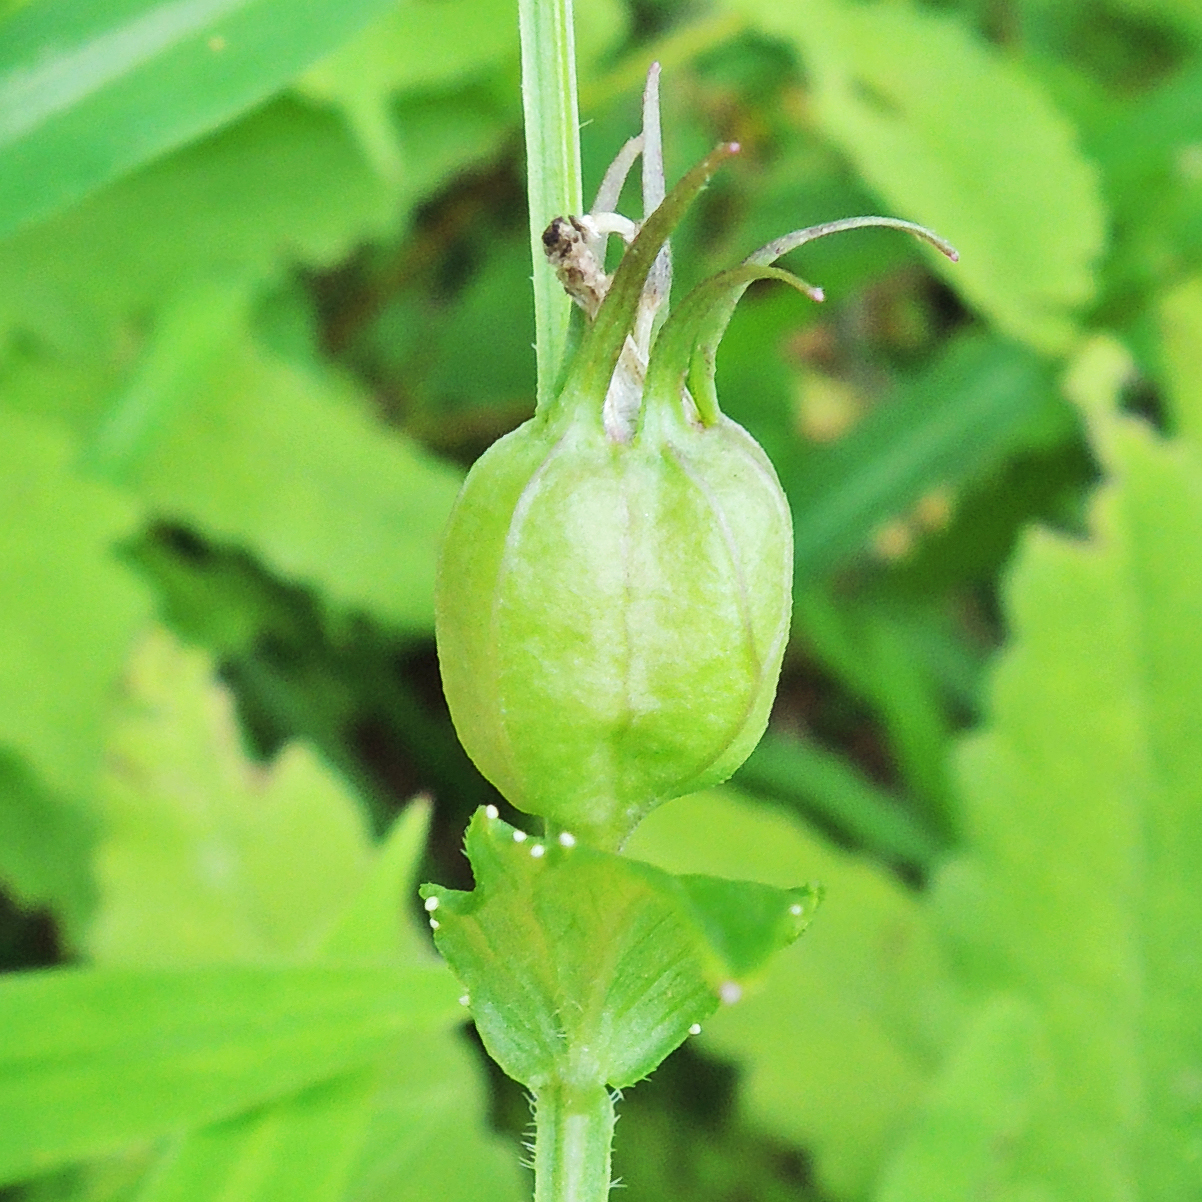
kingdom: Plantae
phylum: Tracheophyta
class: Magnoliopsida
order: Asterales
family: Campanulaceae
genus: Lobelia
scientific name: Lobelia inflata
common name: Indian tobacco
